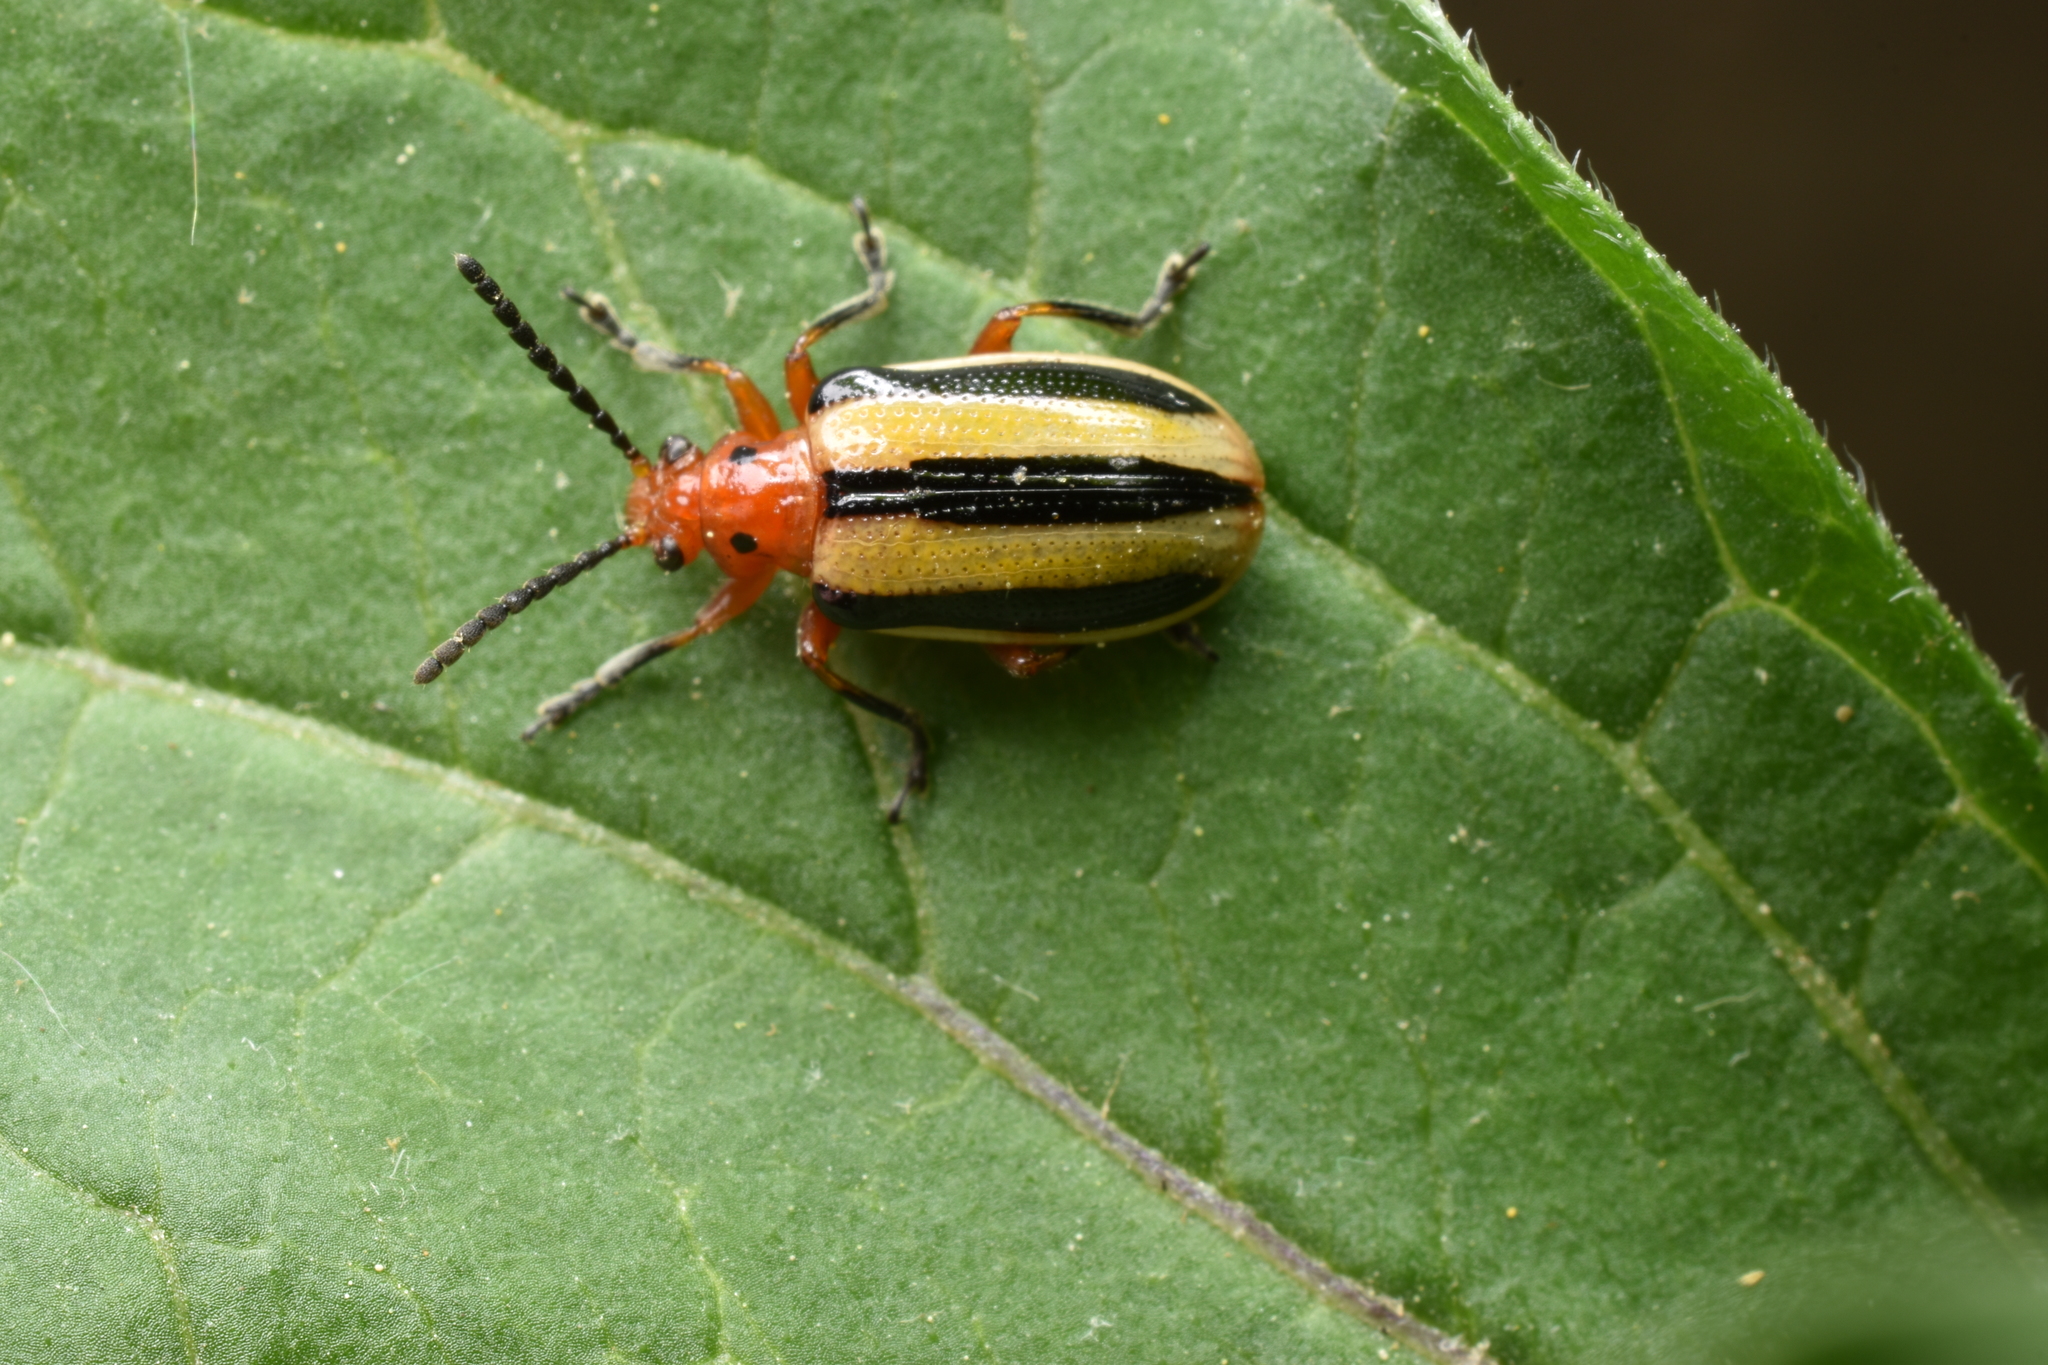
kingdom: Animalia
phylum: Arthropoda
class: Insecta
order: Coleoptera
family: Chrysomelidae
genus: Lema
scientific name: Lema daturaphila
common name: Leaf beetle
